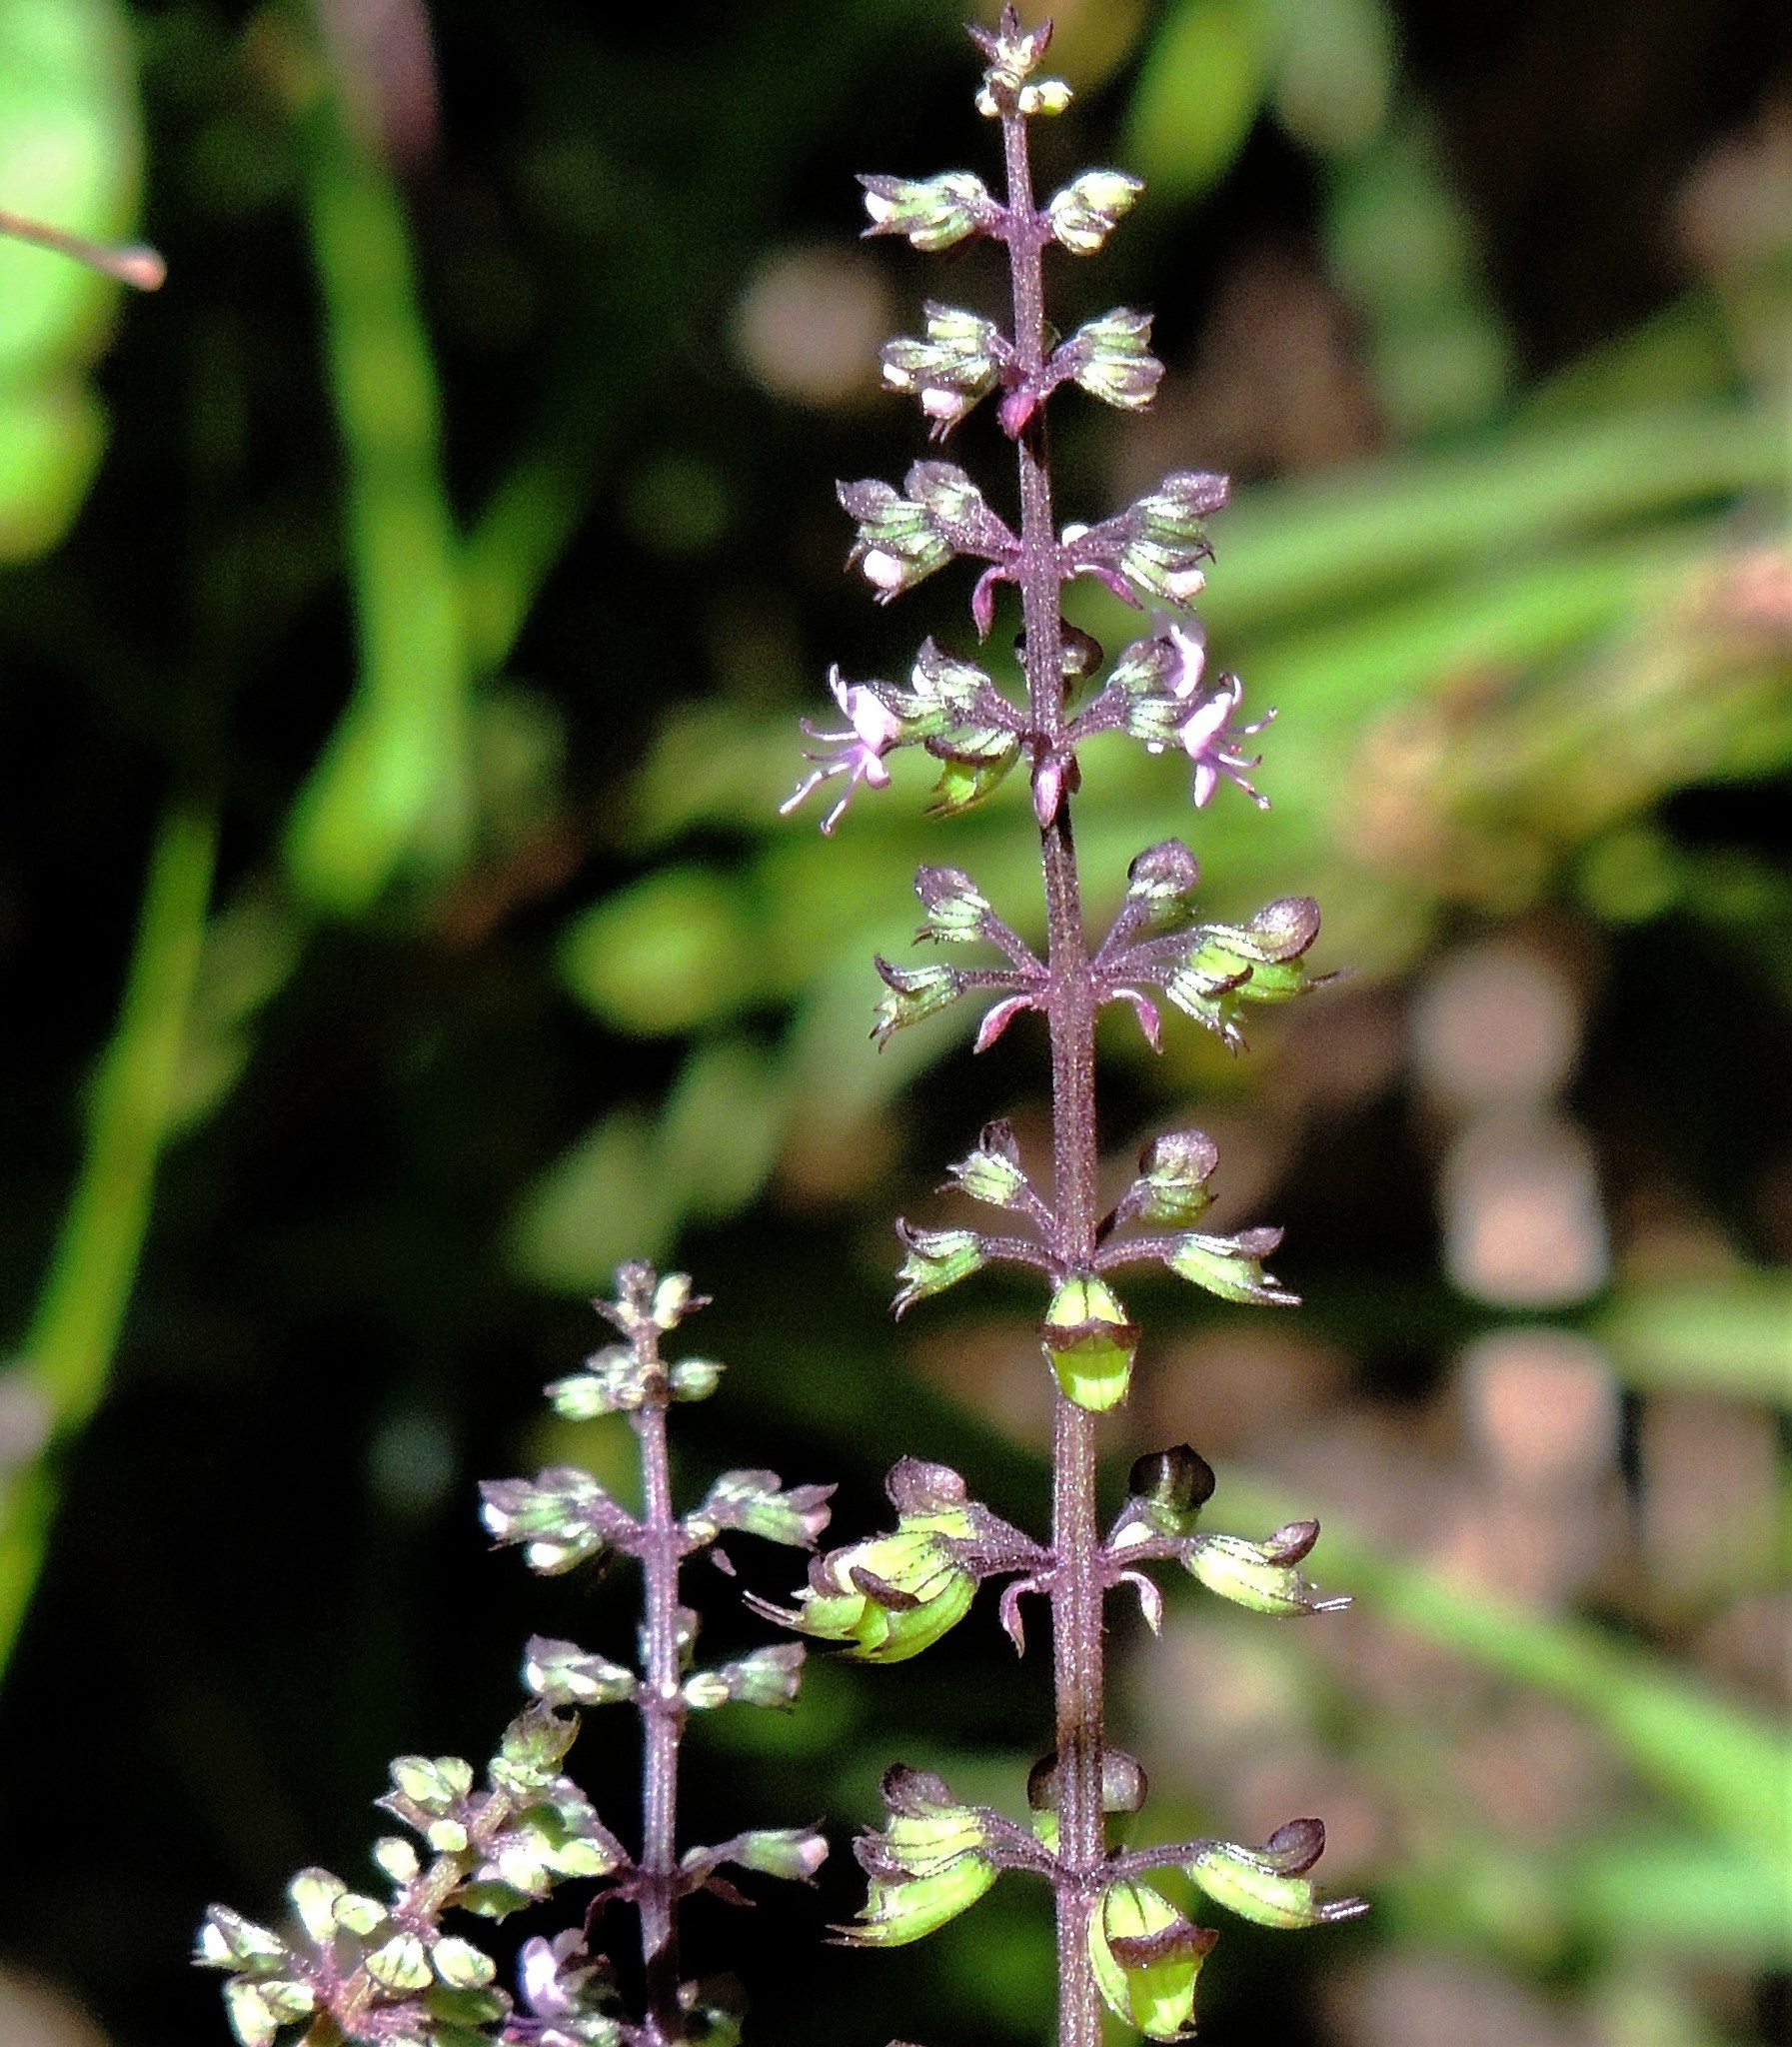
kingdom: Plantae
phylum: Tracheophyta
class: Magnoliopsida
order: Lamiales
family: Lamiaceae
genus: Ocimum
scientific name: Ocimum carnosum
